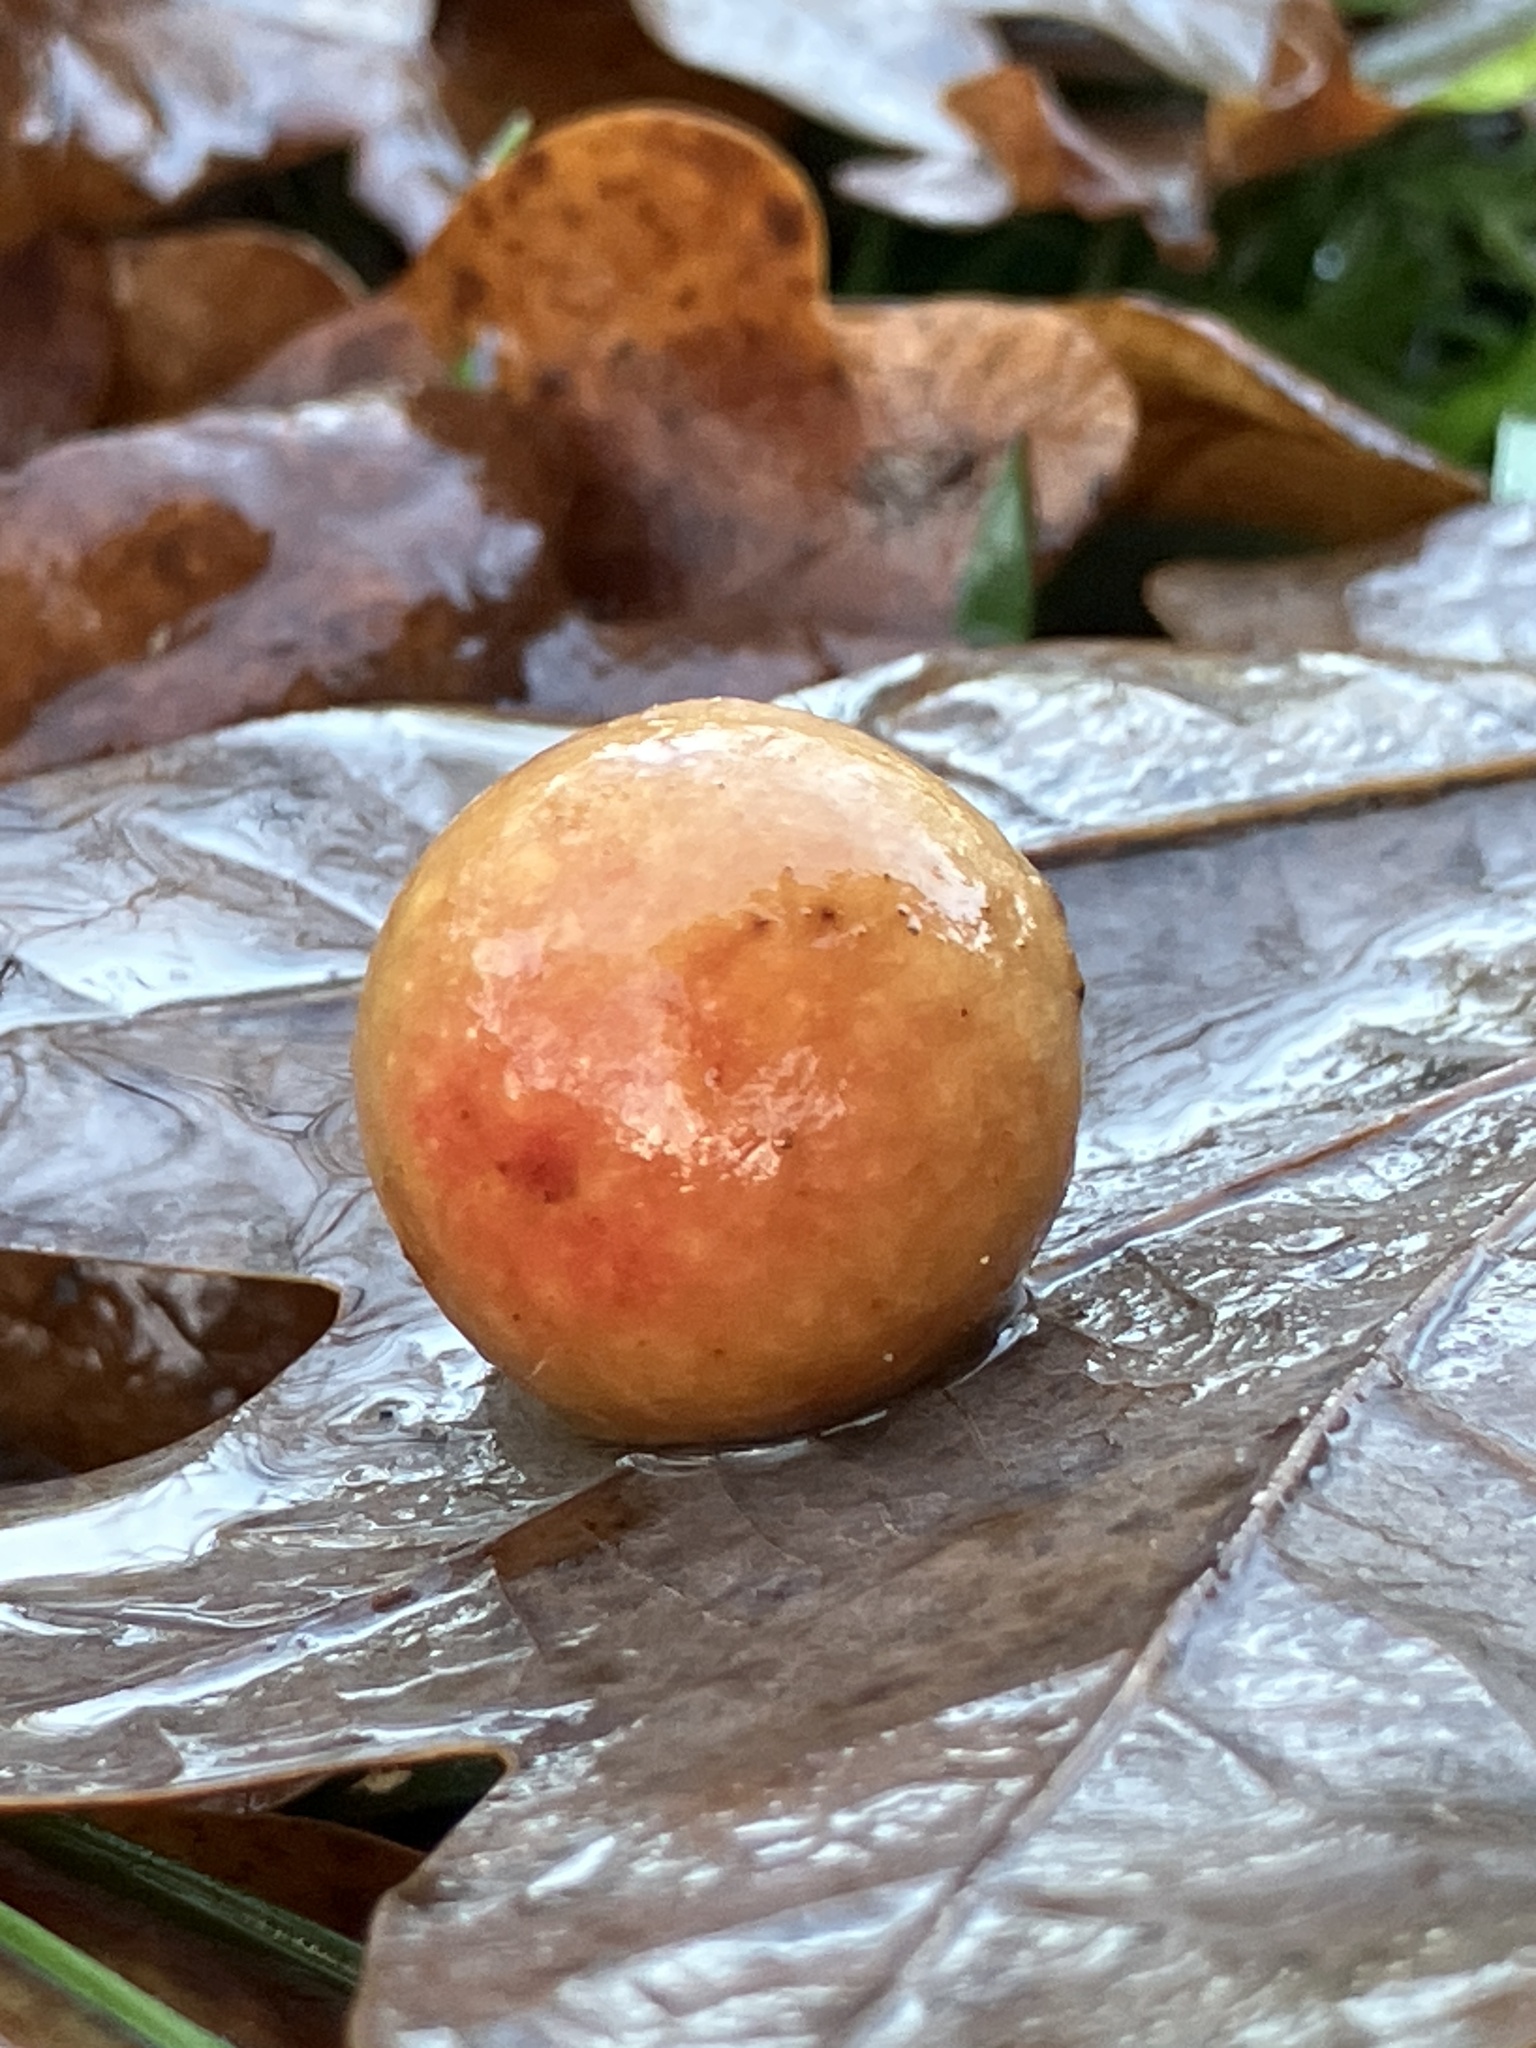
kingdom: Animalia
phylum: Arthropoda
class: Insecta
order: Hymenoptera
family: Cynipidae
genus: Cynips
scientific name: Cynips quercusfolii
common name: Cherry gall
